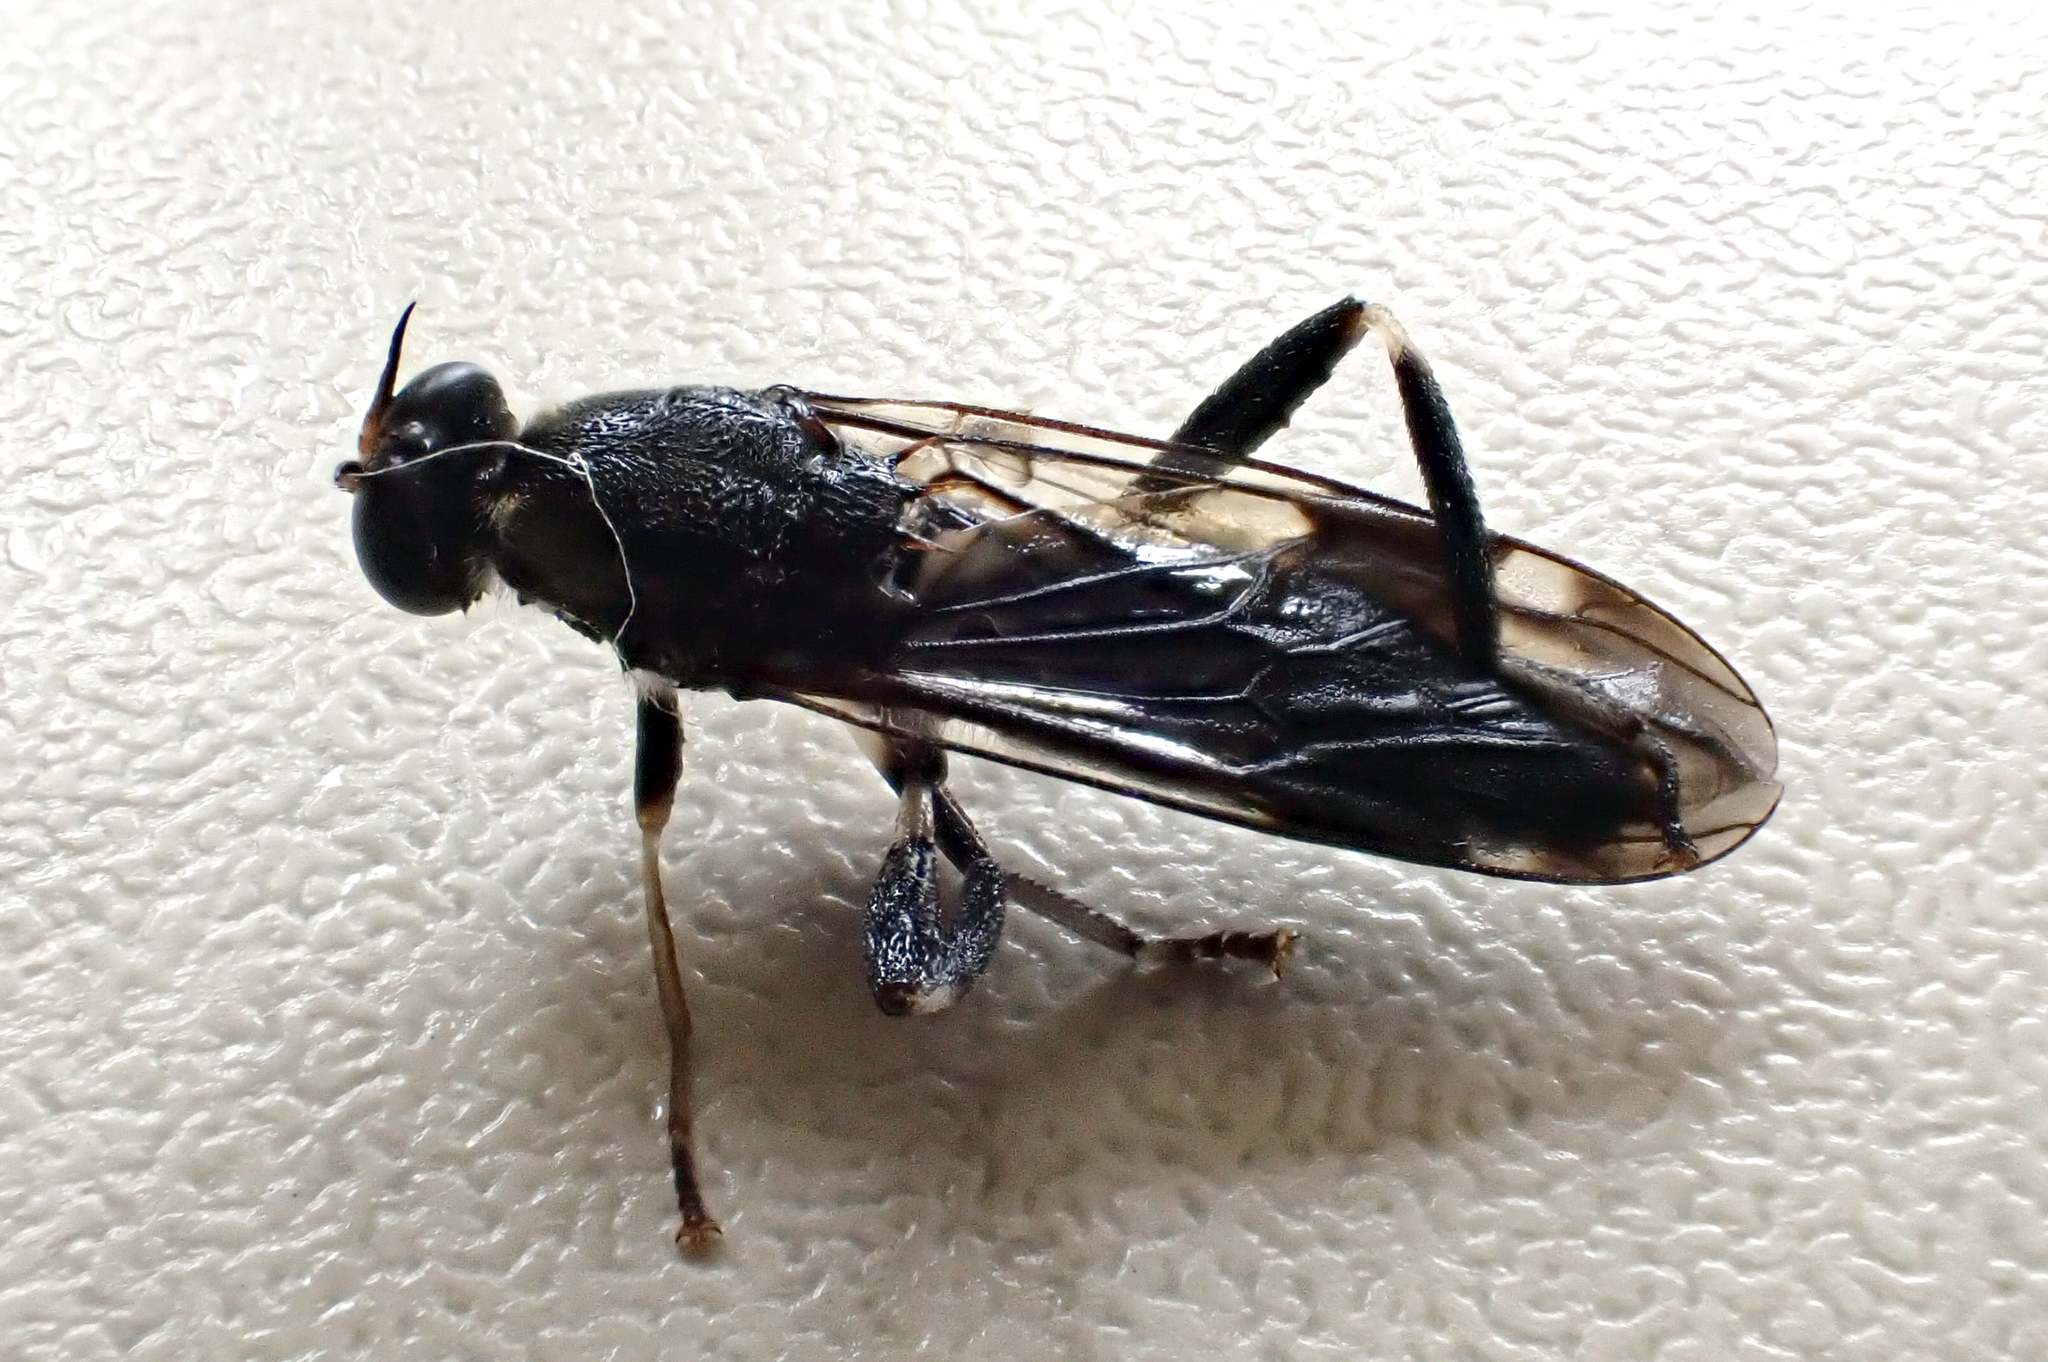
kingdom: Animalia
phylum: Arthropoda
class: Insecta
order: Diptera
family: Stratiomyidae
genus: Exaireta
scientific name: Exaireta spinigera
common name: Blue soldier fly
